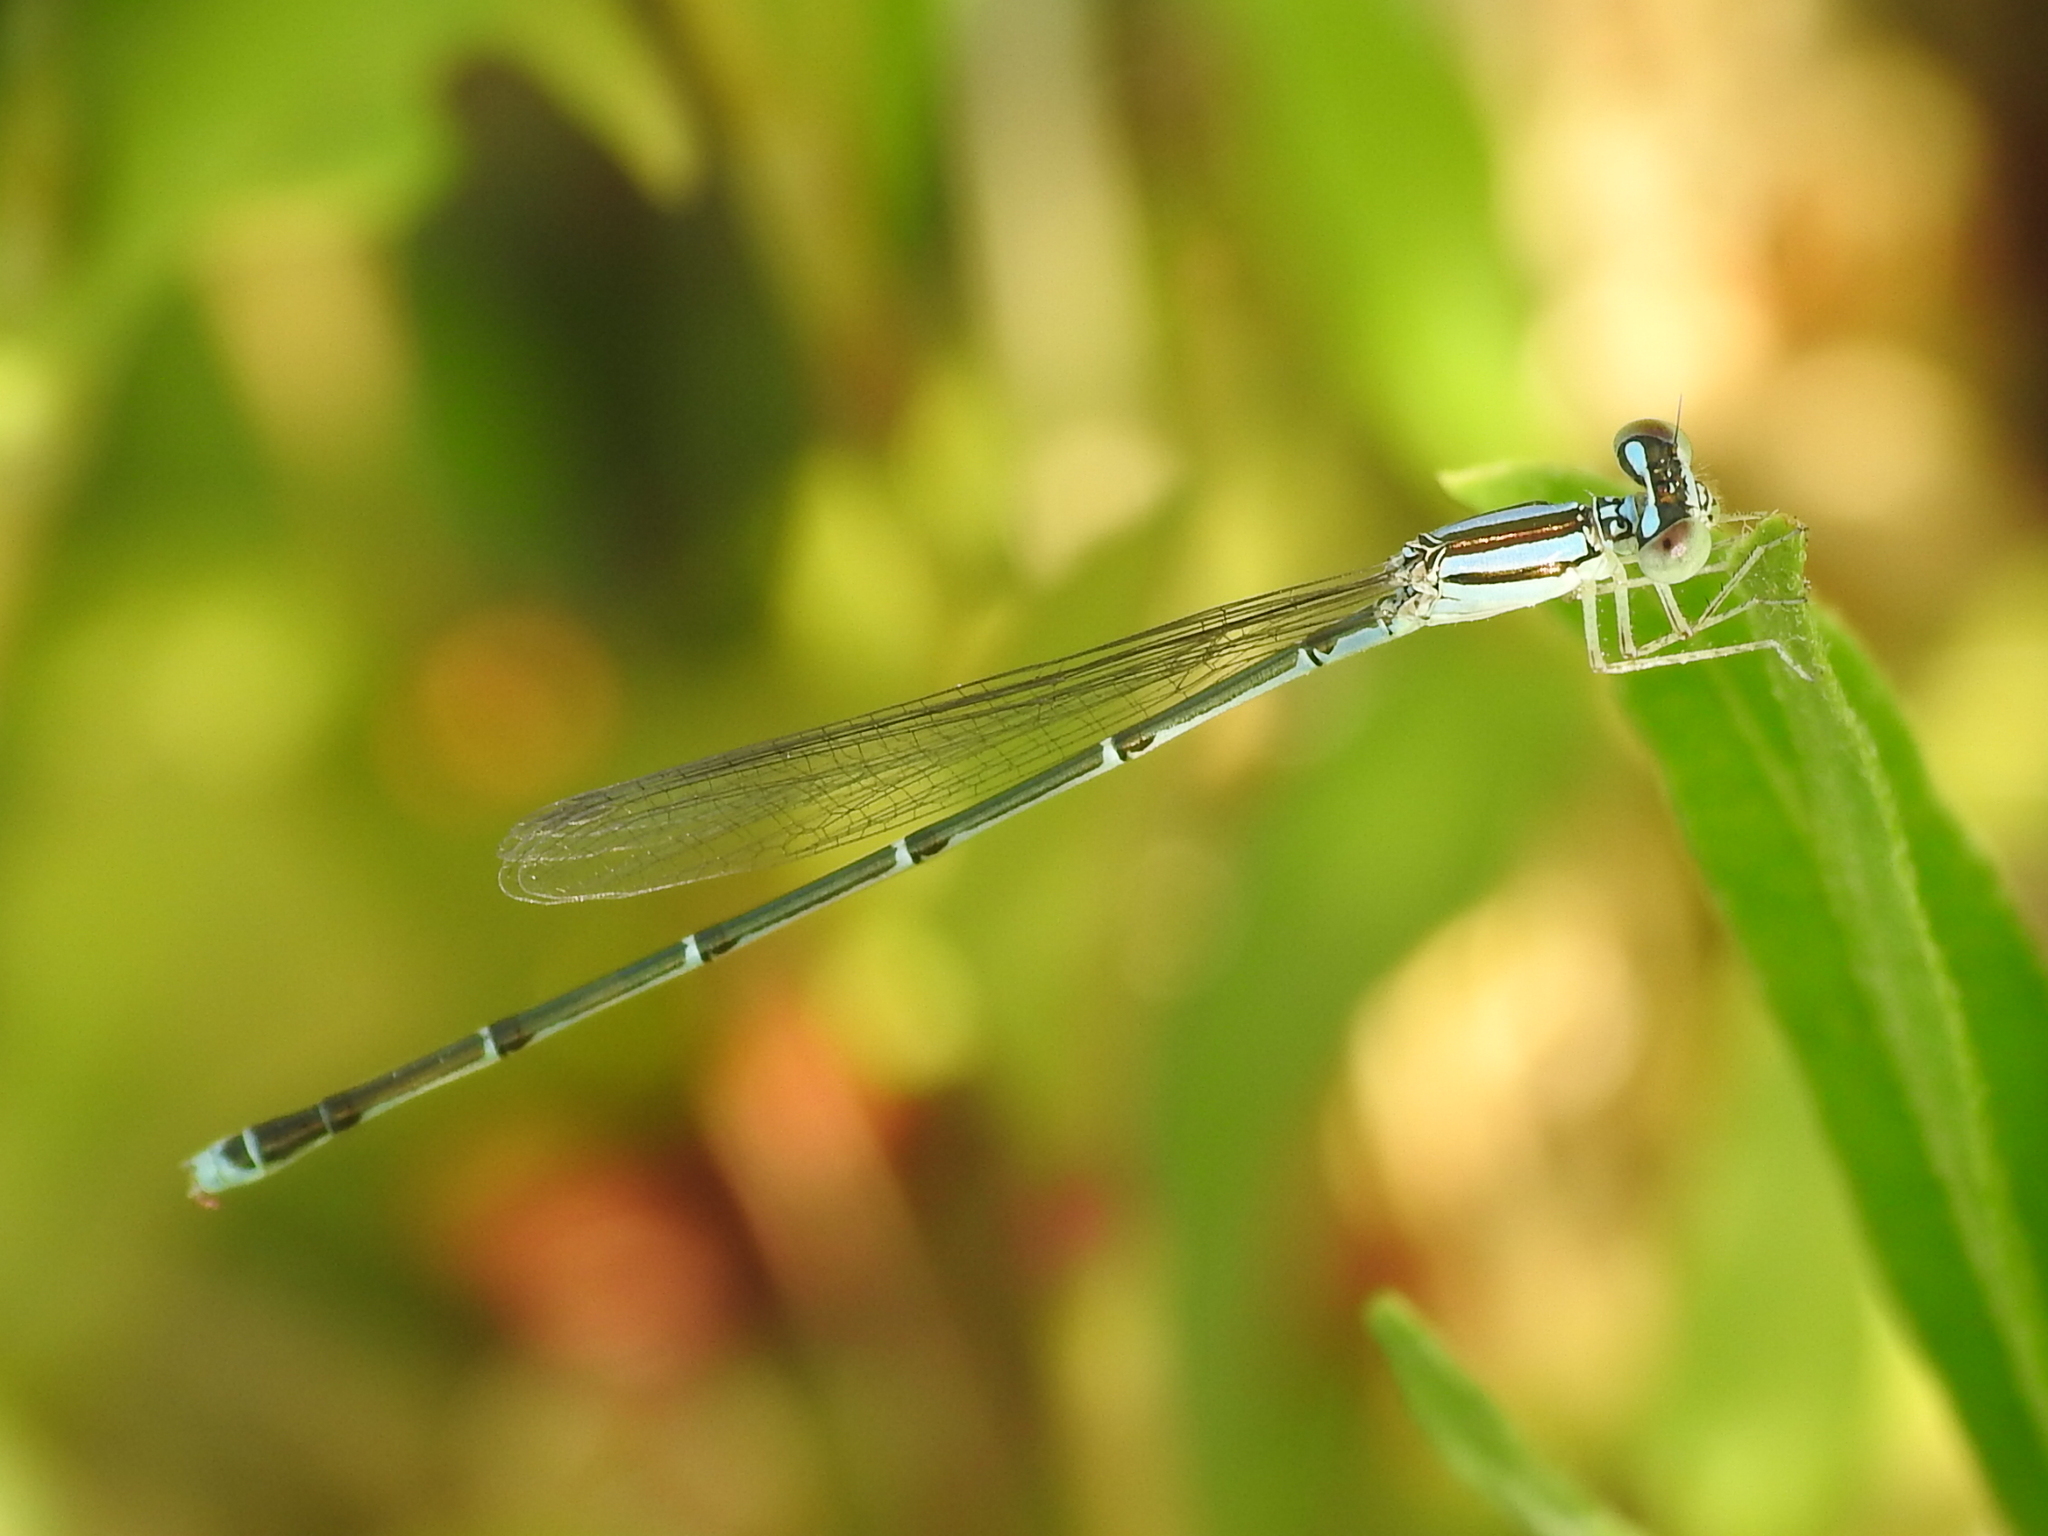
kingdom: Animalia
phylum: Arthropoda
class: Insecta
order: Odonata
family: Coenagrionidae
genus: Enallagma
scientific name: Enallagma signatum
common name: Orange bluet
